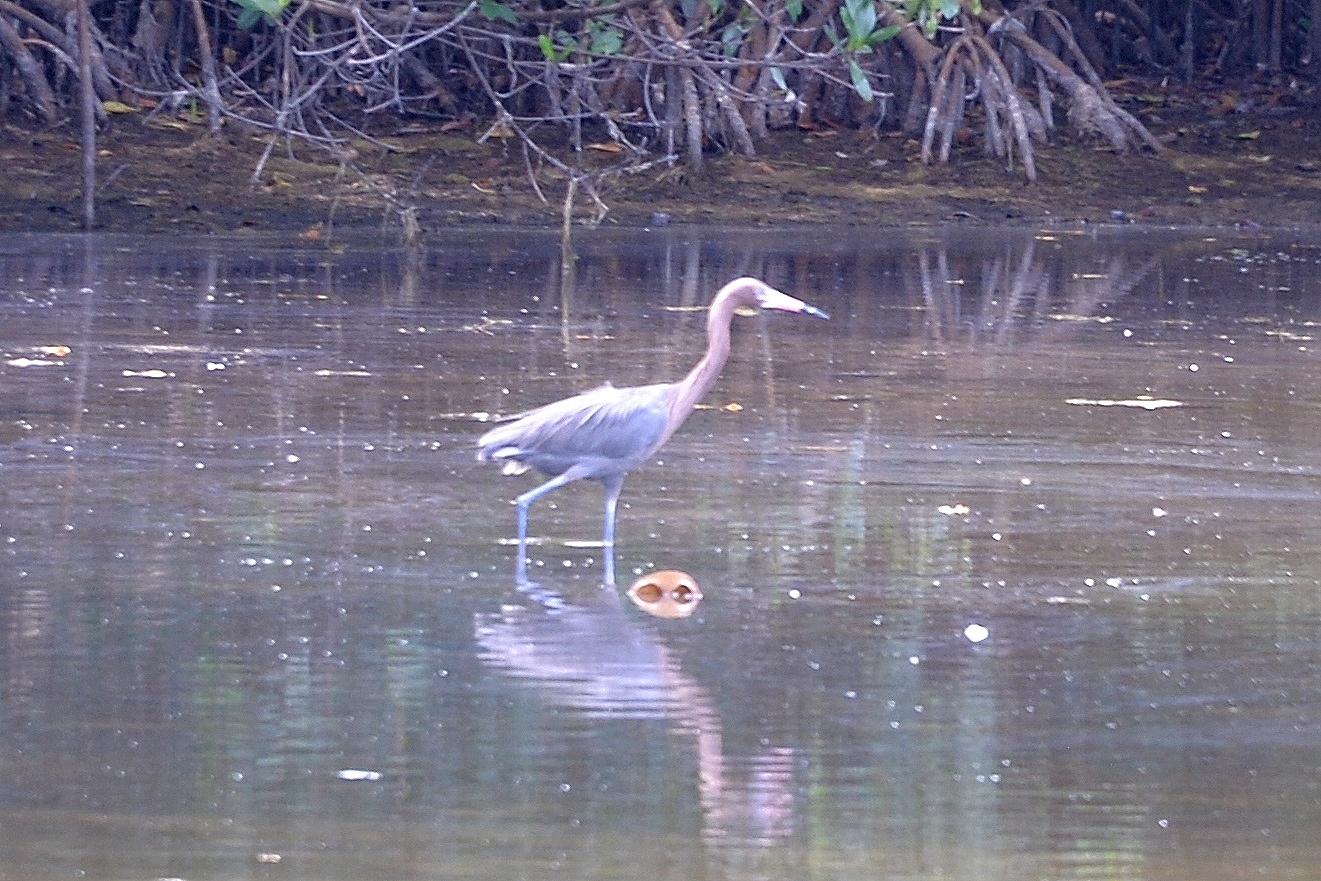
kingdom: Animalia
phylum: Chordata
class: Aves
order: Pelecaniformes
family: Ardeidae
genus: Egretta
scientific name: Egretta rufescens
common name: Reddish egret
